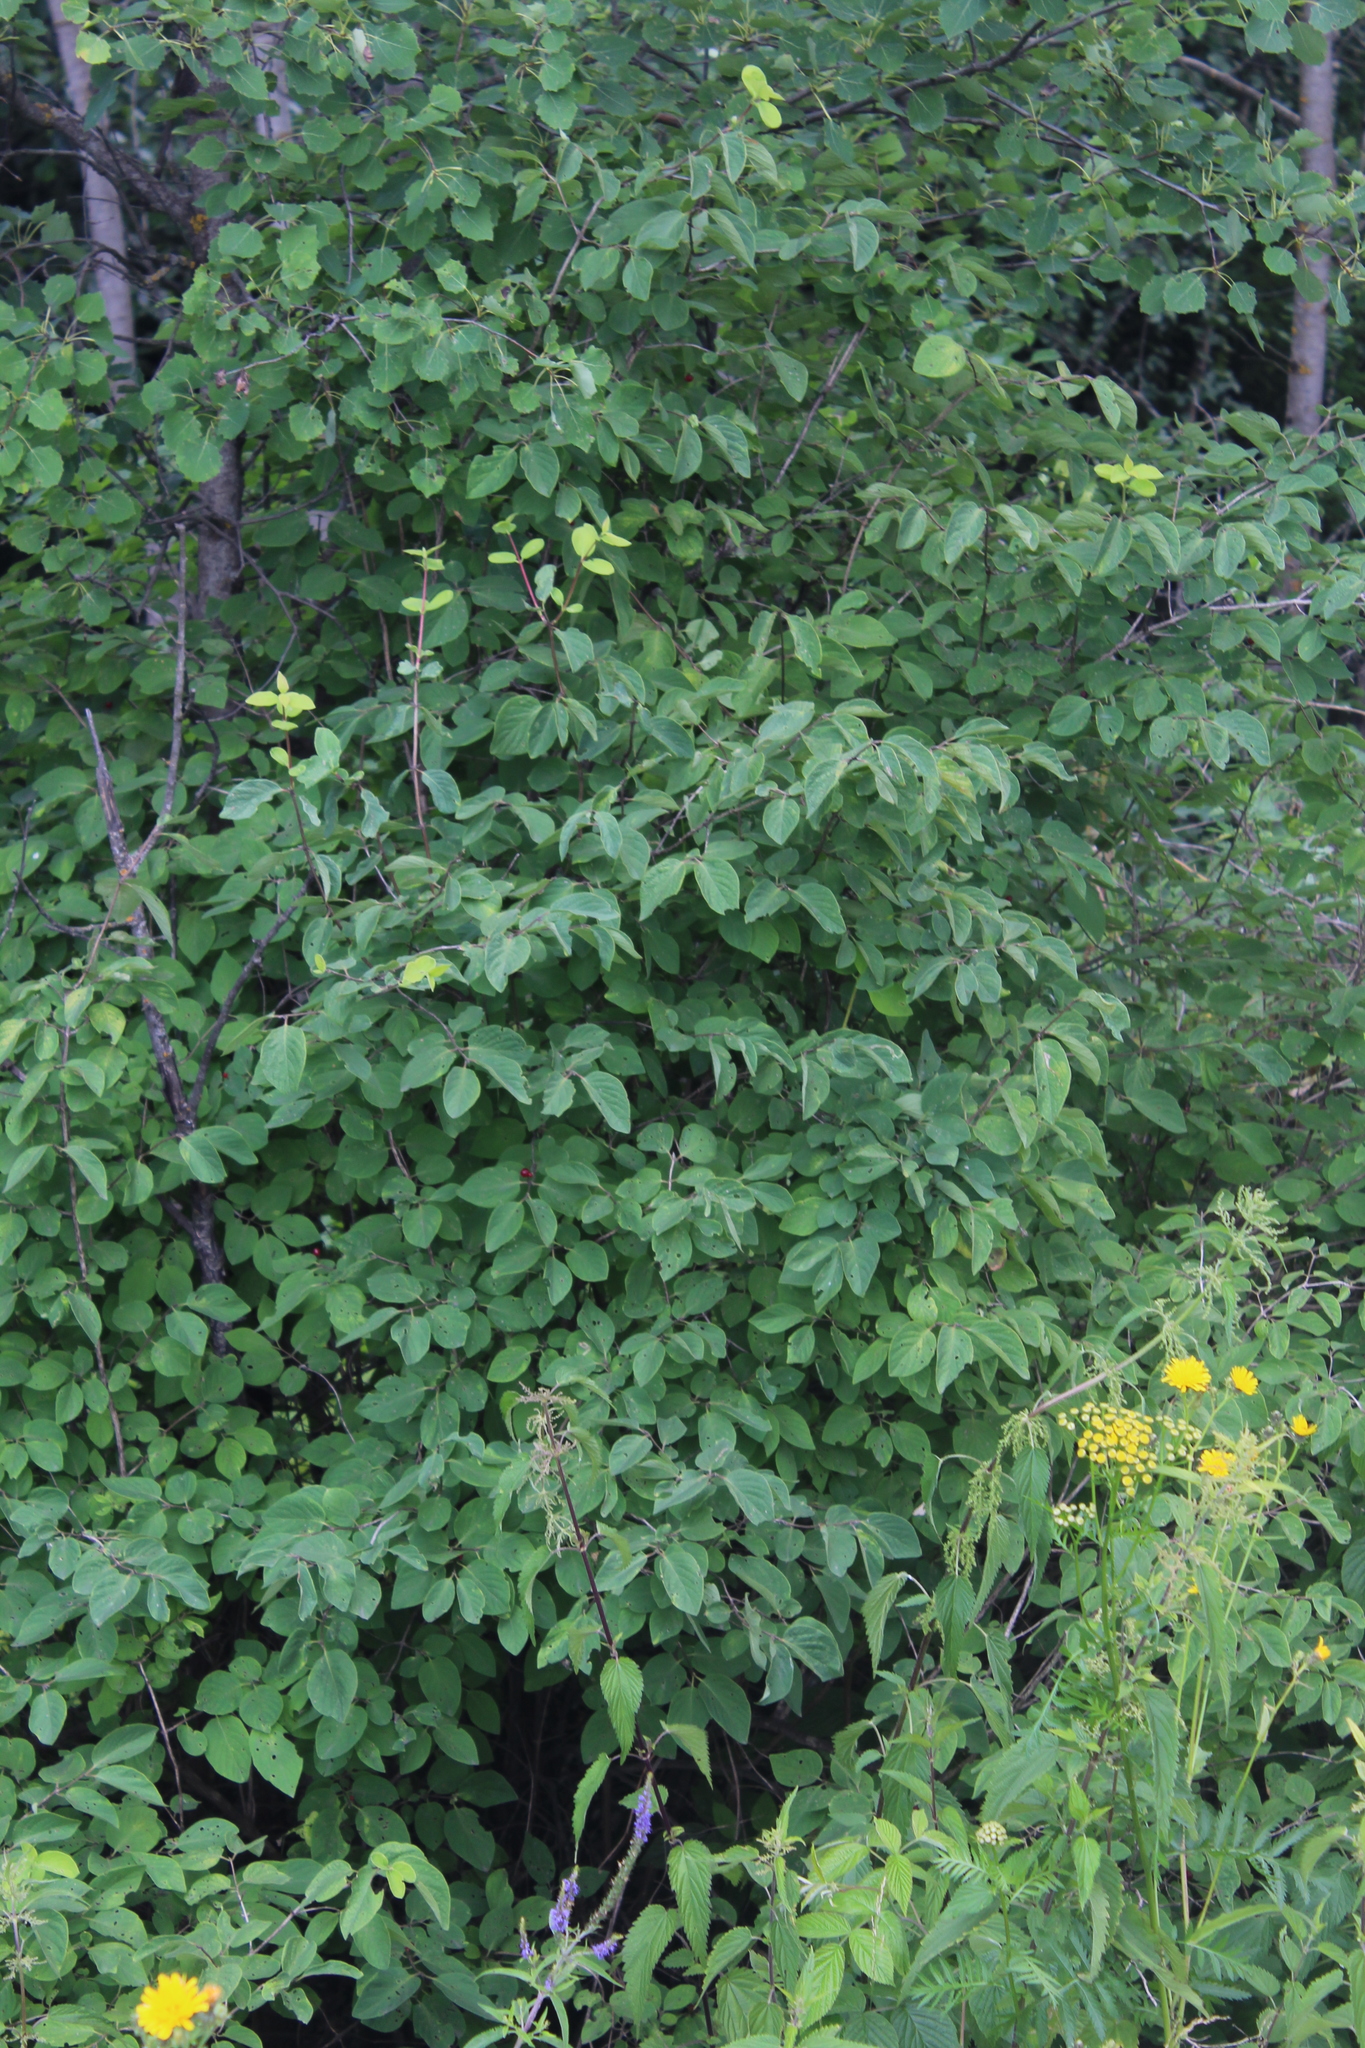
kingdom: Plantae
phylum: Tracheophyta
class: Magnoliopsida
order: Dipsacales
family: Caprifoliaceae
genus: Lonicera
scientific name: Lonicera xylosteum
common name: Fly honeysuckle
